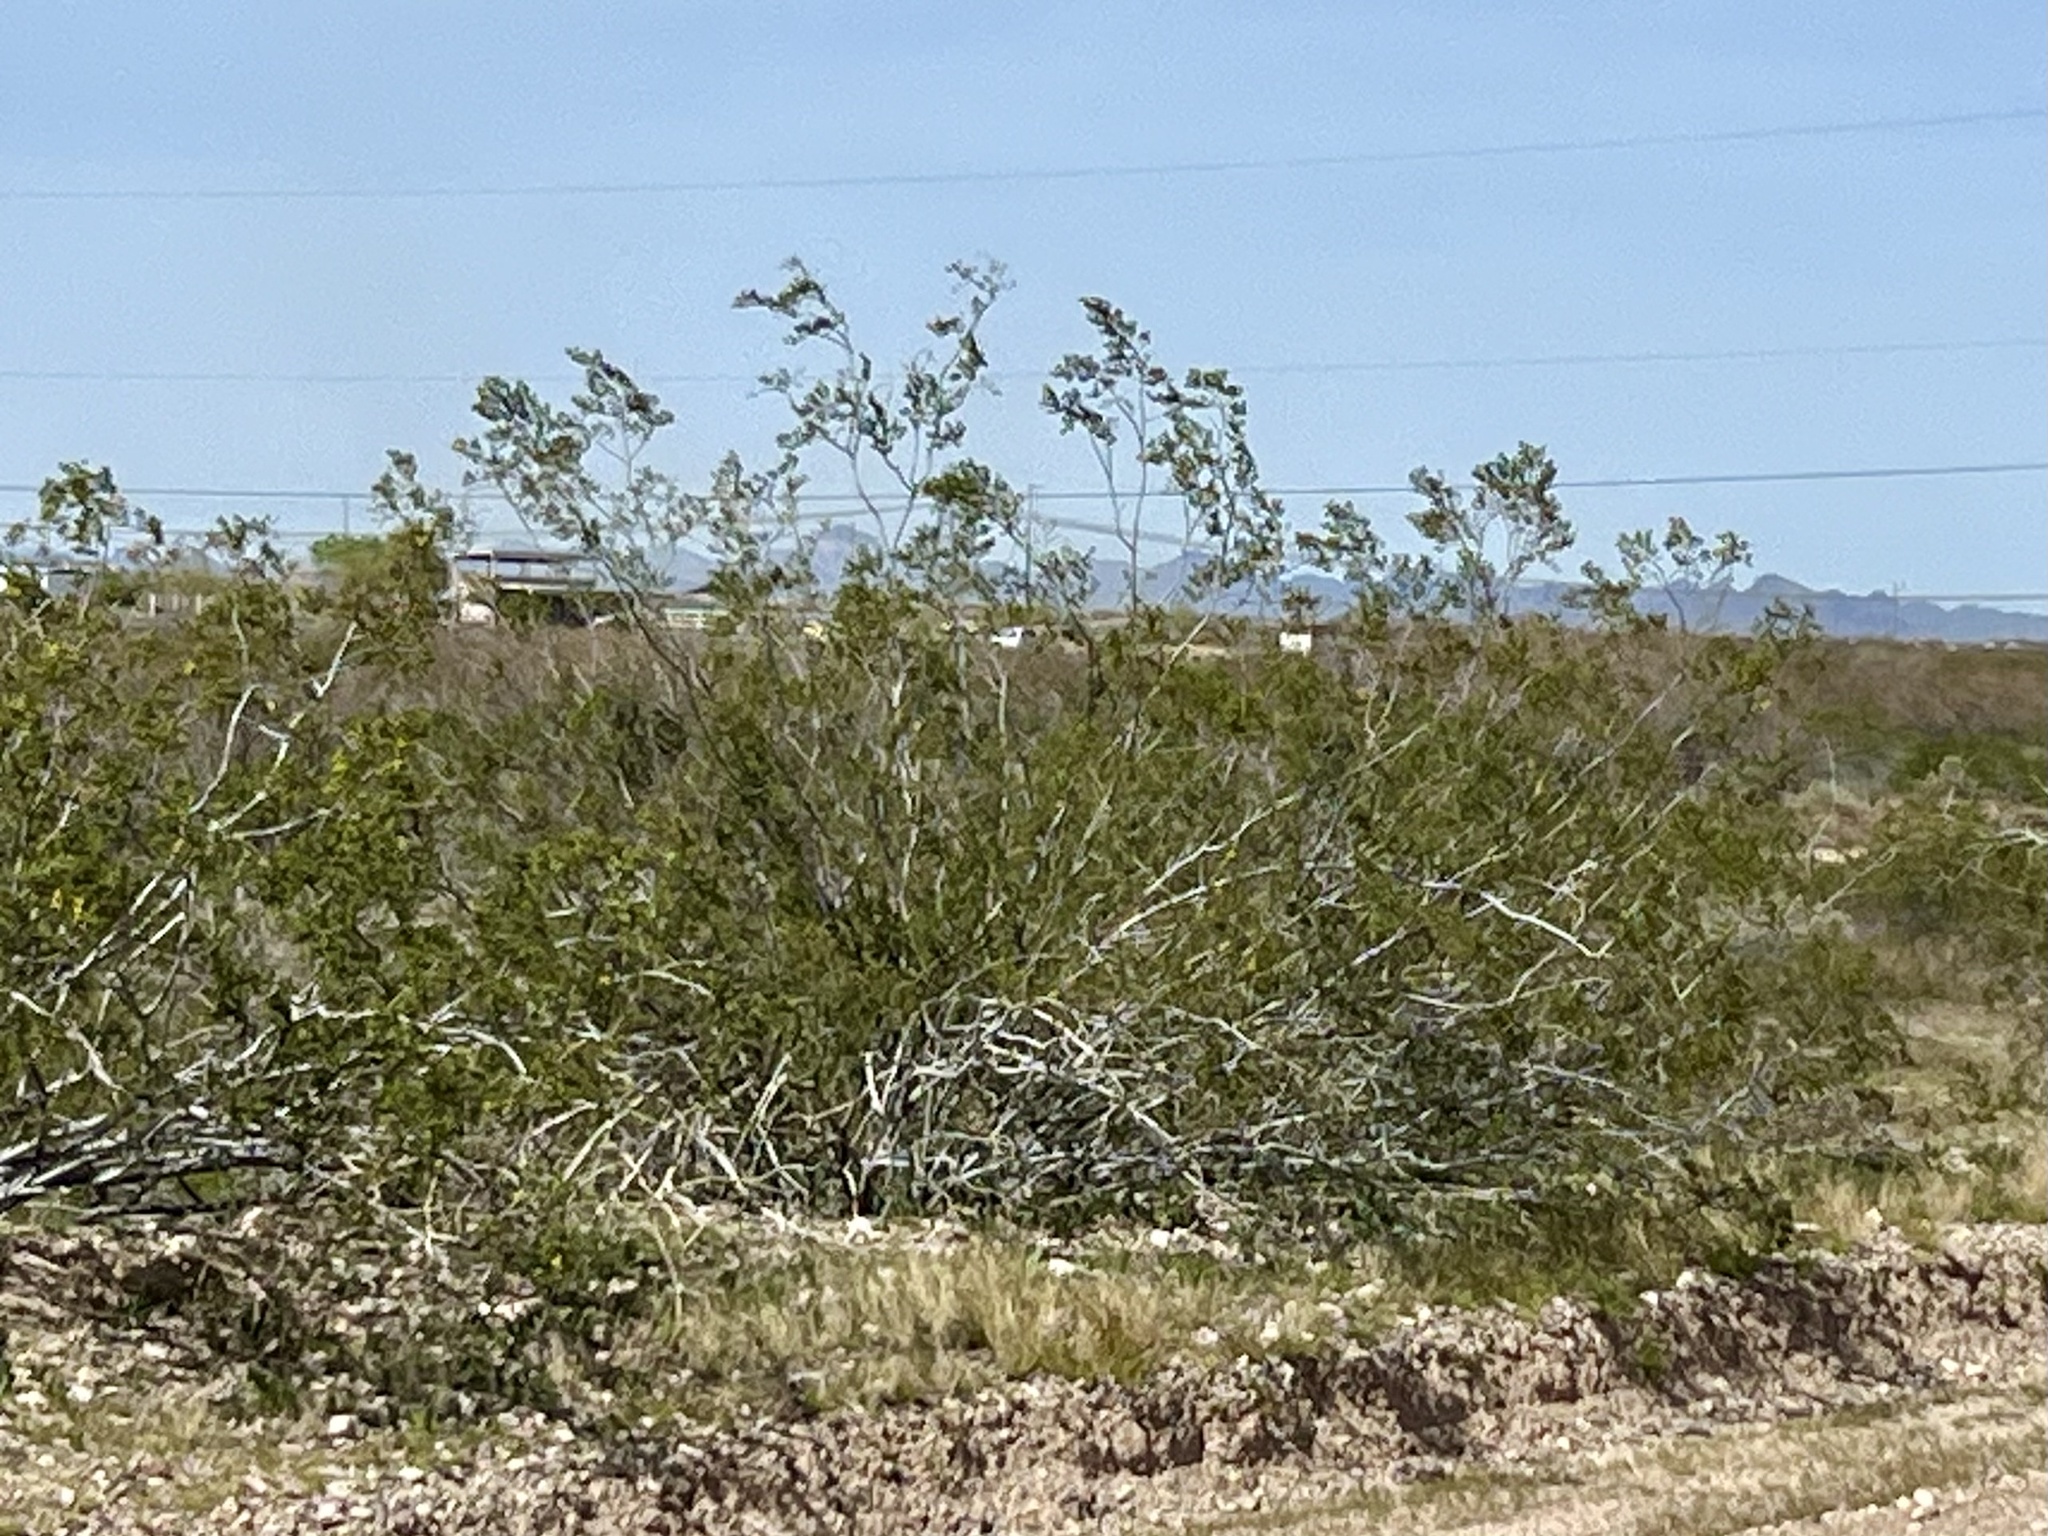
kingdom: Plantae
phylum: Tracheophyta
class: Magnoliopsida
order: Zygophyllales
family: Zygophyllaceae
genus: Larrea
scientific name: Larrea tridentata
